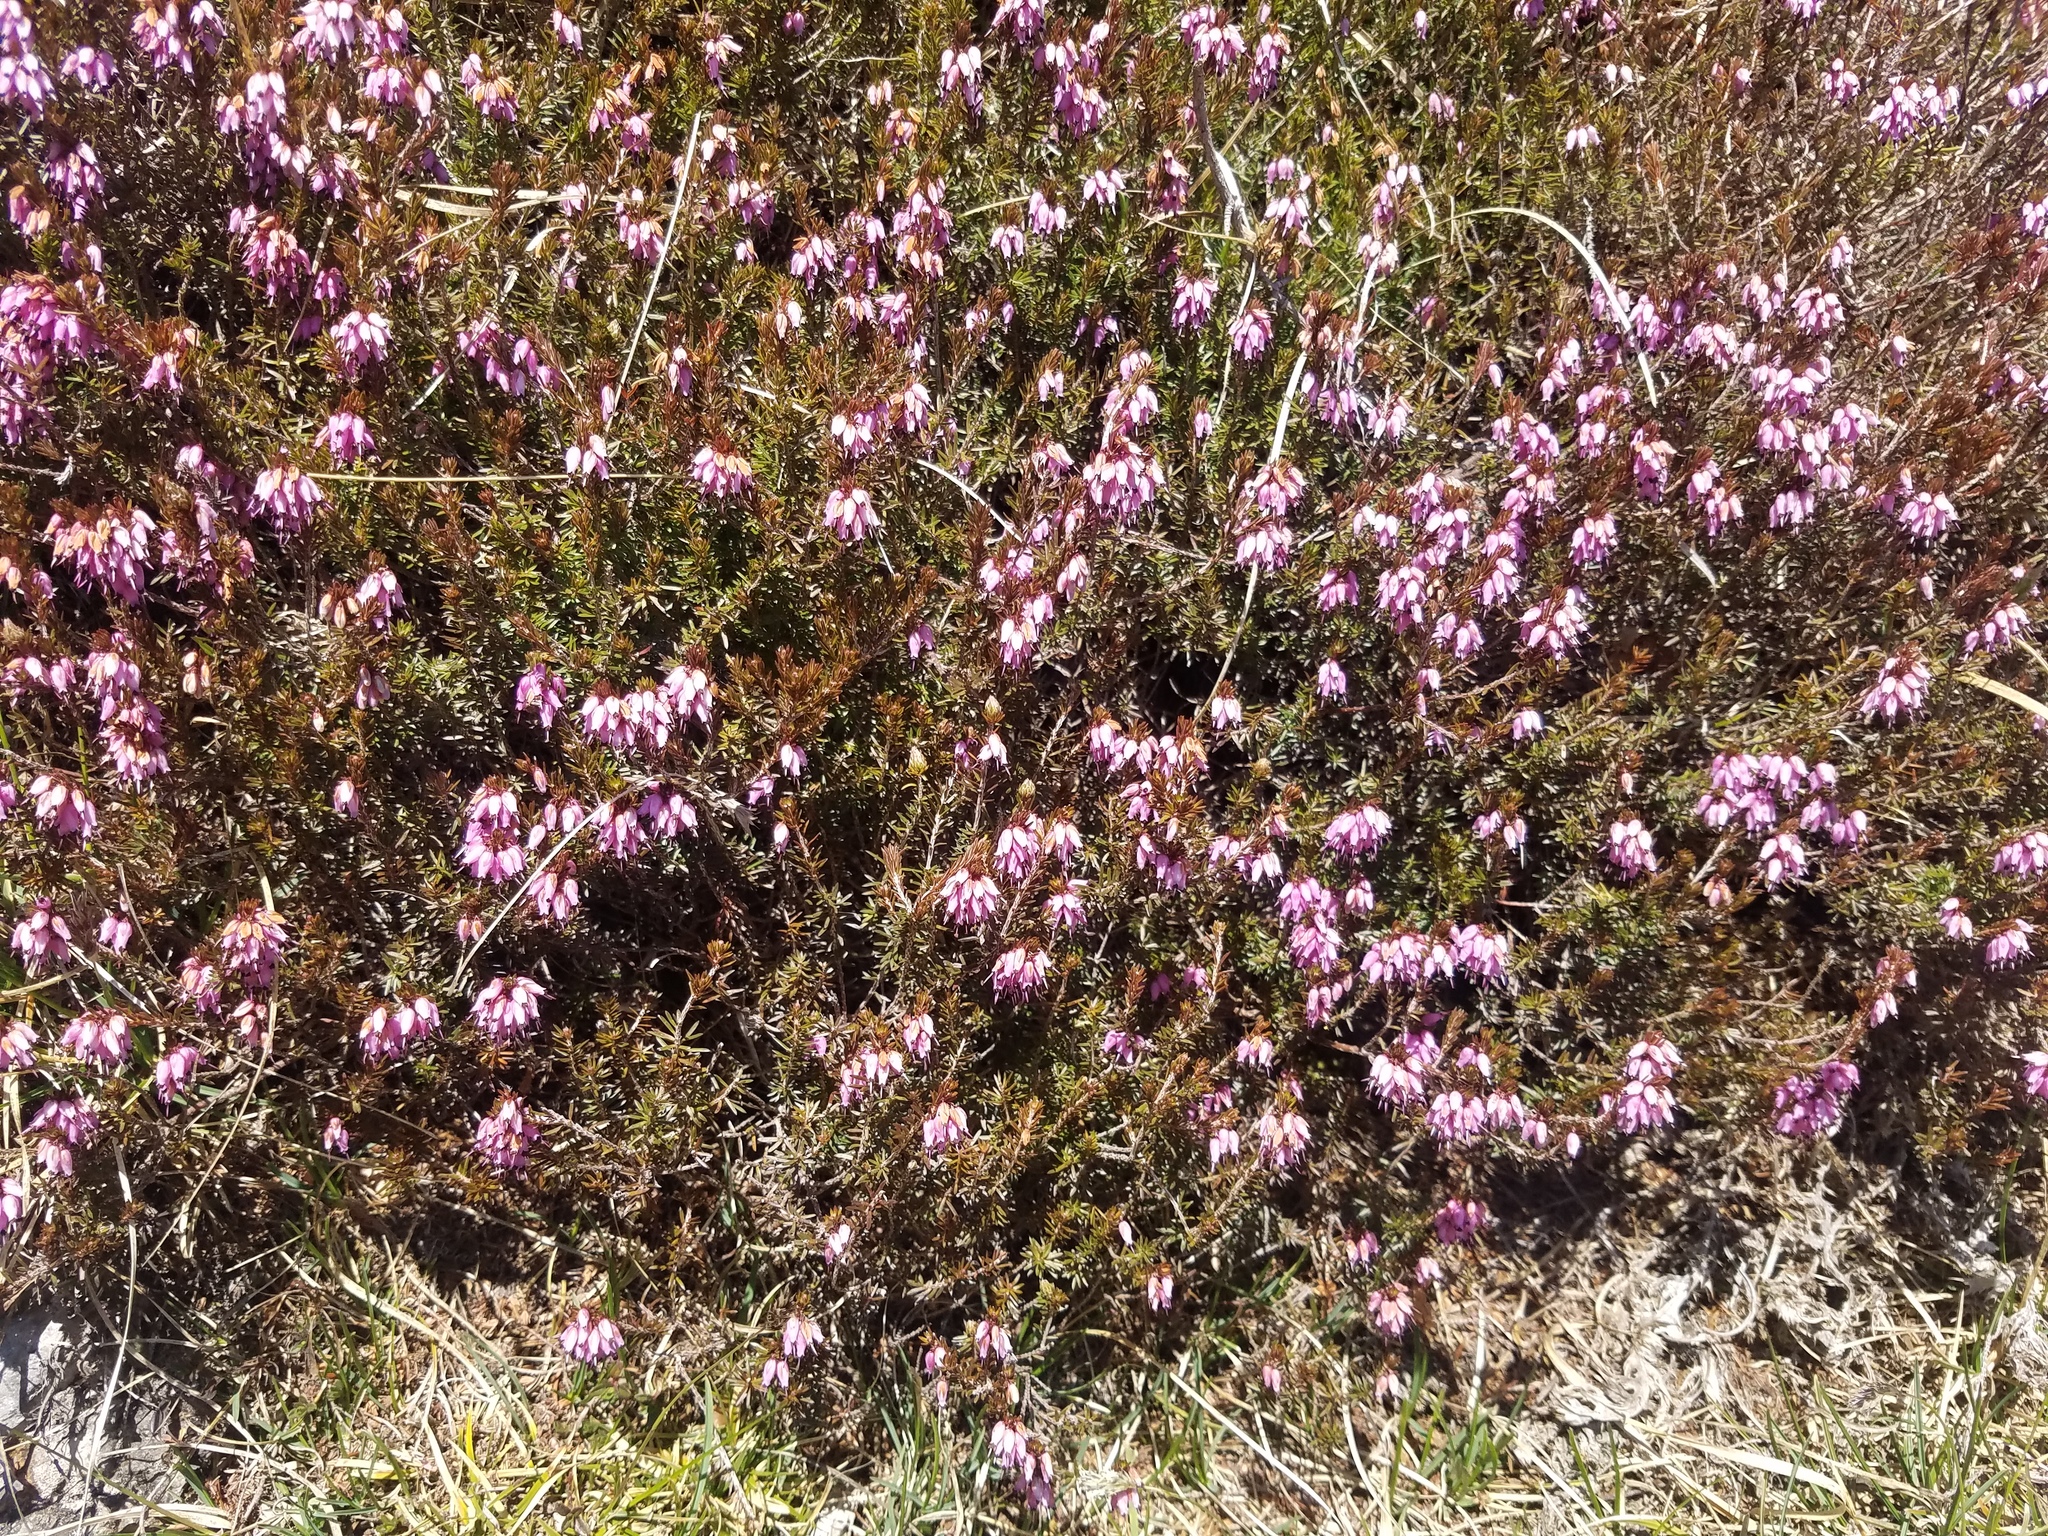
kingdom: Plantae
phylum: Tracheophyta
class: Magnoliopsida
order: Ericales
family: Ericaceae
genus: Erica
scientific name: Erica carnea
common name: Winter heath
